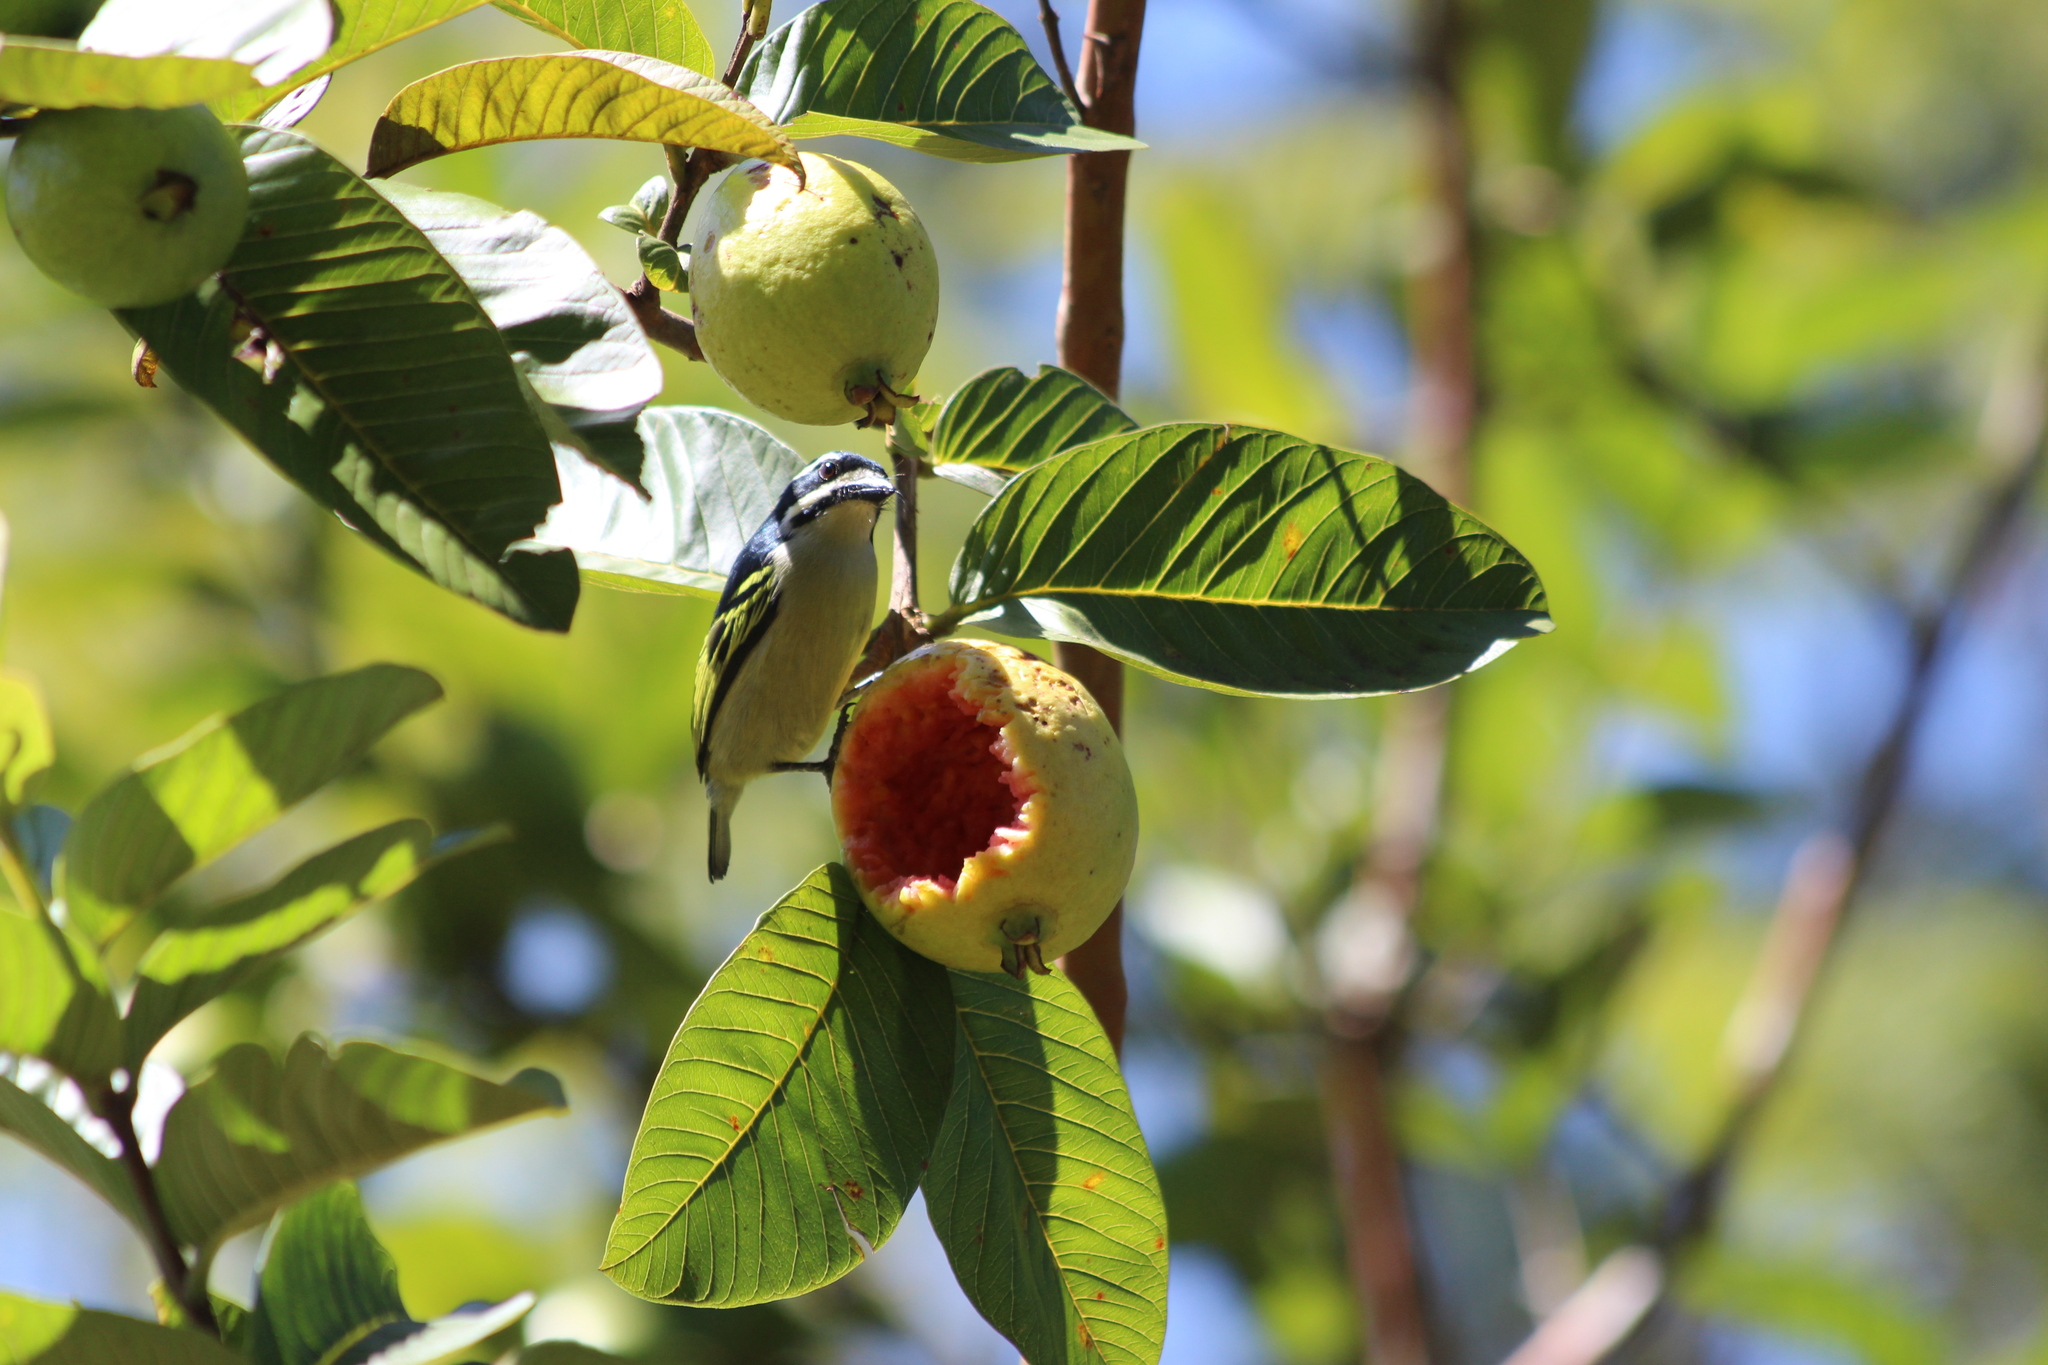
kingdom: Animalia
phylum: Chordata
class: Aves
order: Piciformes
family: Lybiidae
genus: Pogoniulus
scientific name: Pogoniulus bilineatus
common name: Yellow-rumped tinkerbird
